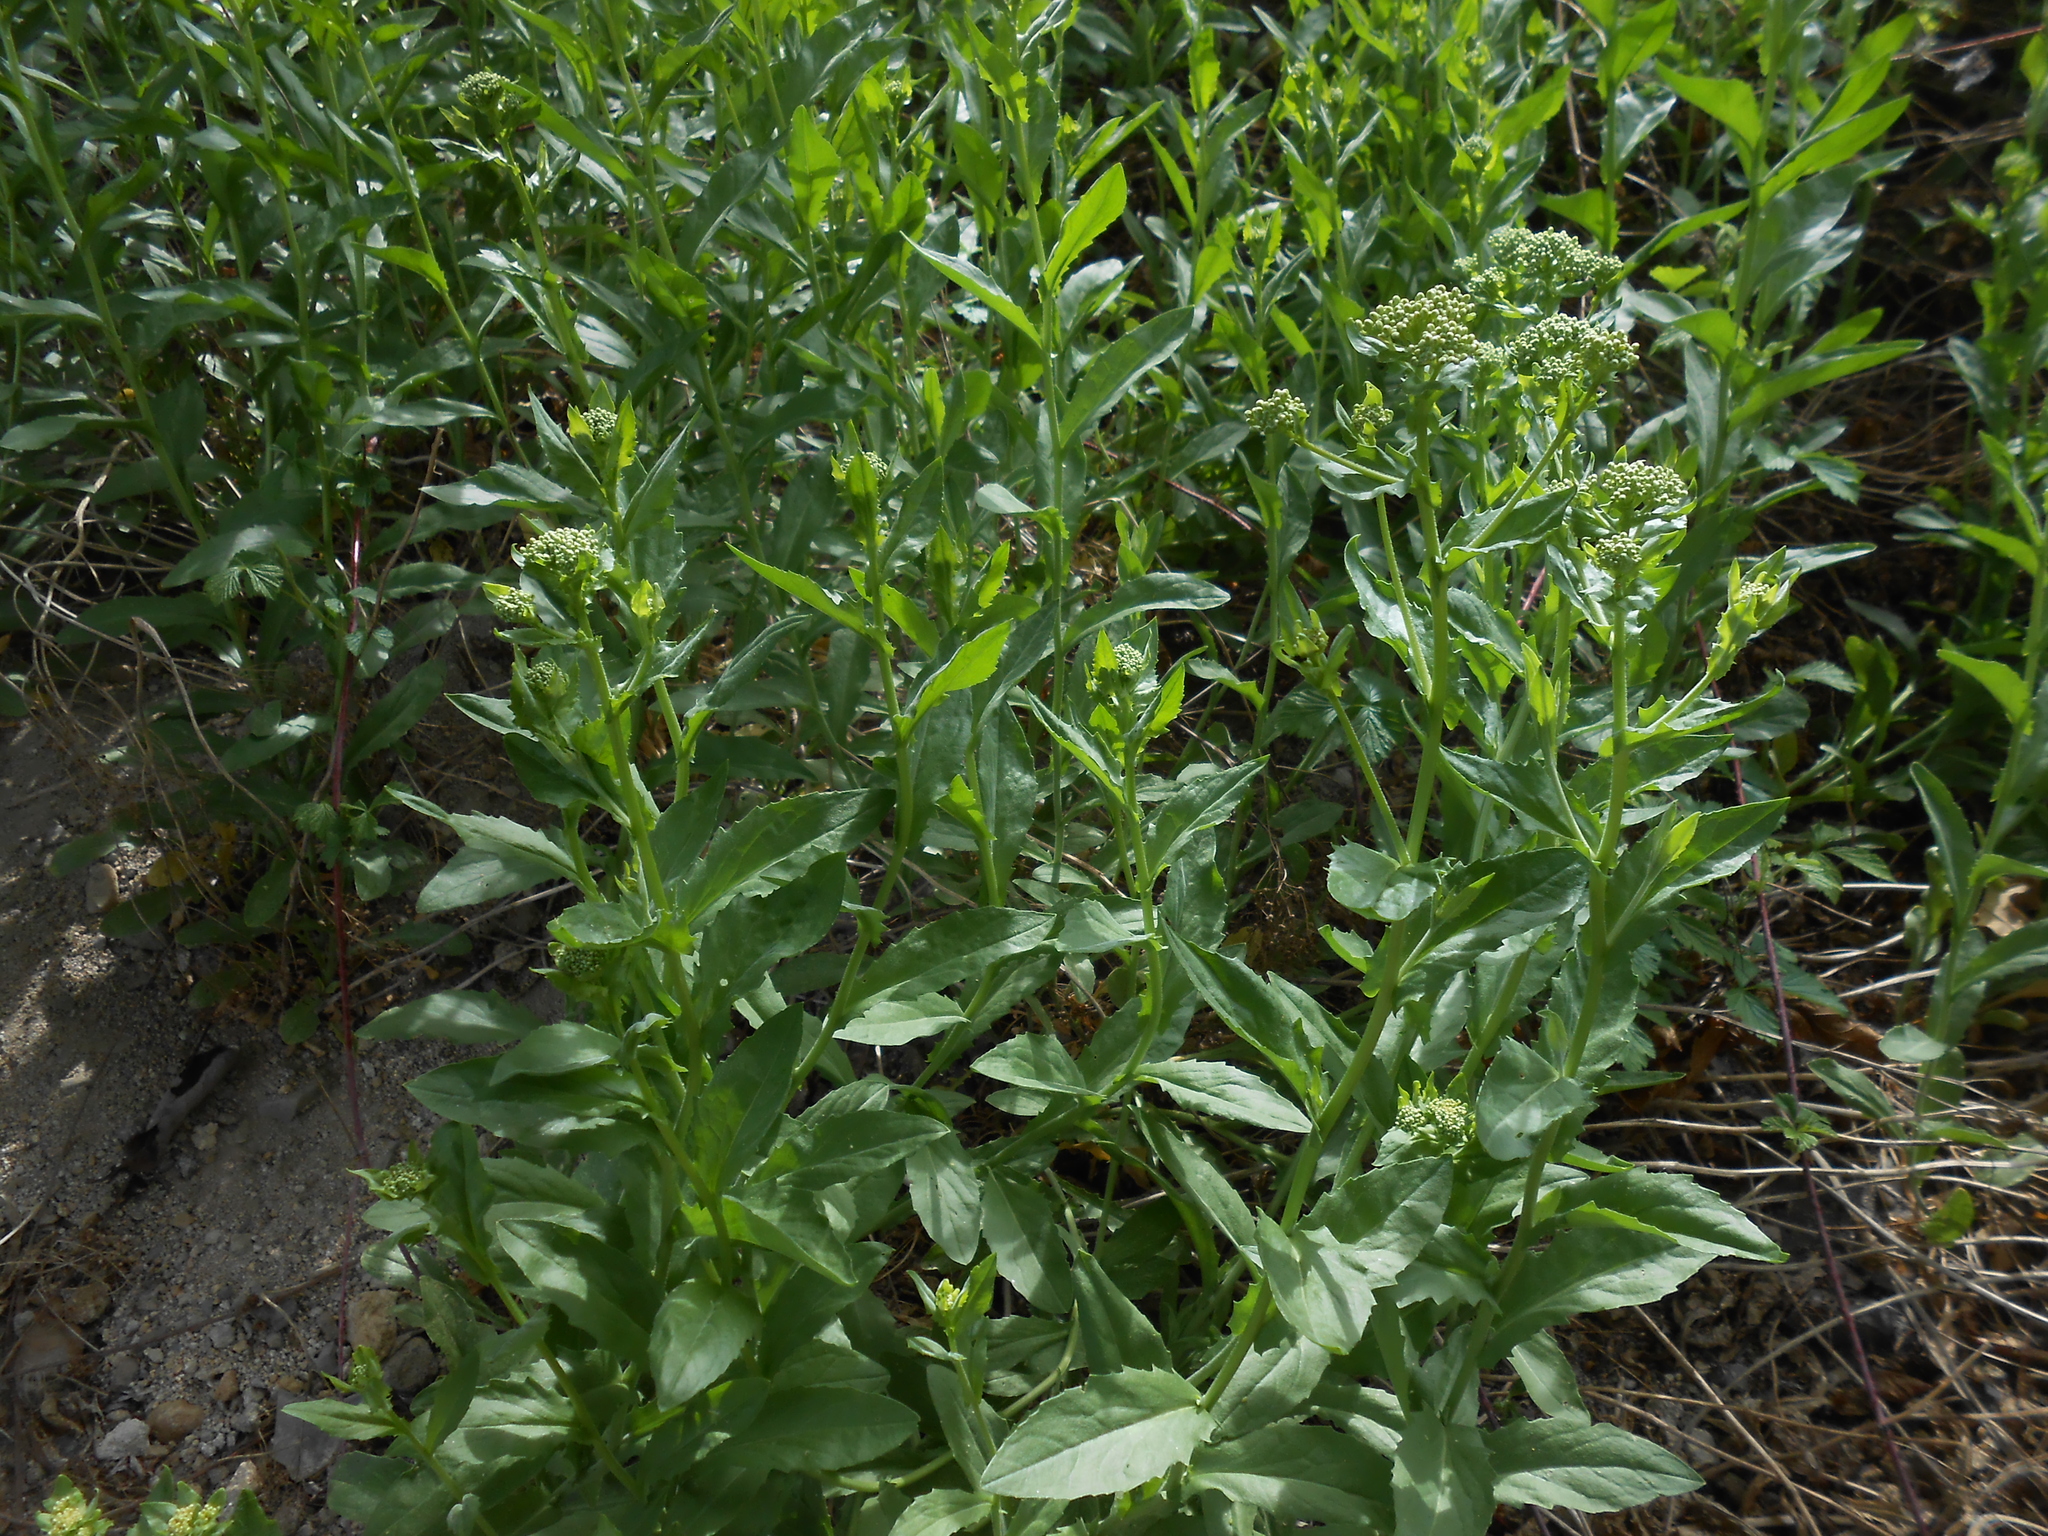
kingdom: Plantae
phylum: Tracheophyta
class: Magnoliopsida
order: Brassicales
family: Brassicaceae
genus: Lepidium
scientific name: Lepidium draba
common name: Hoary cress
